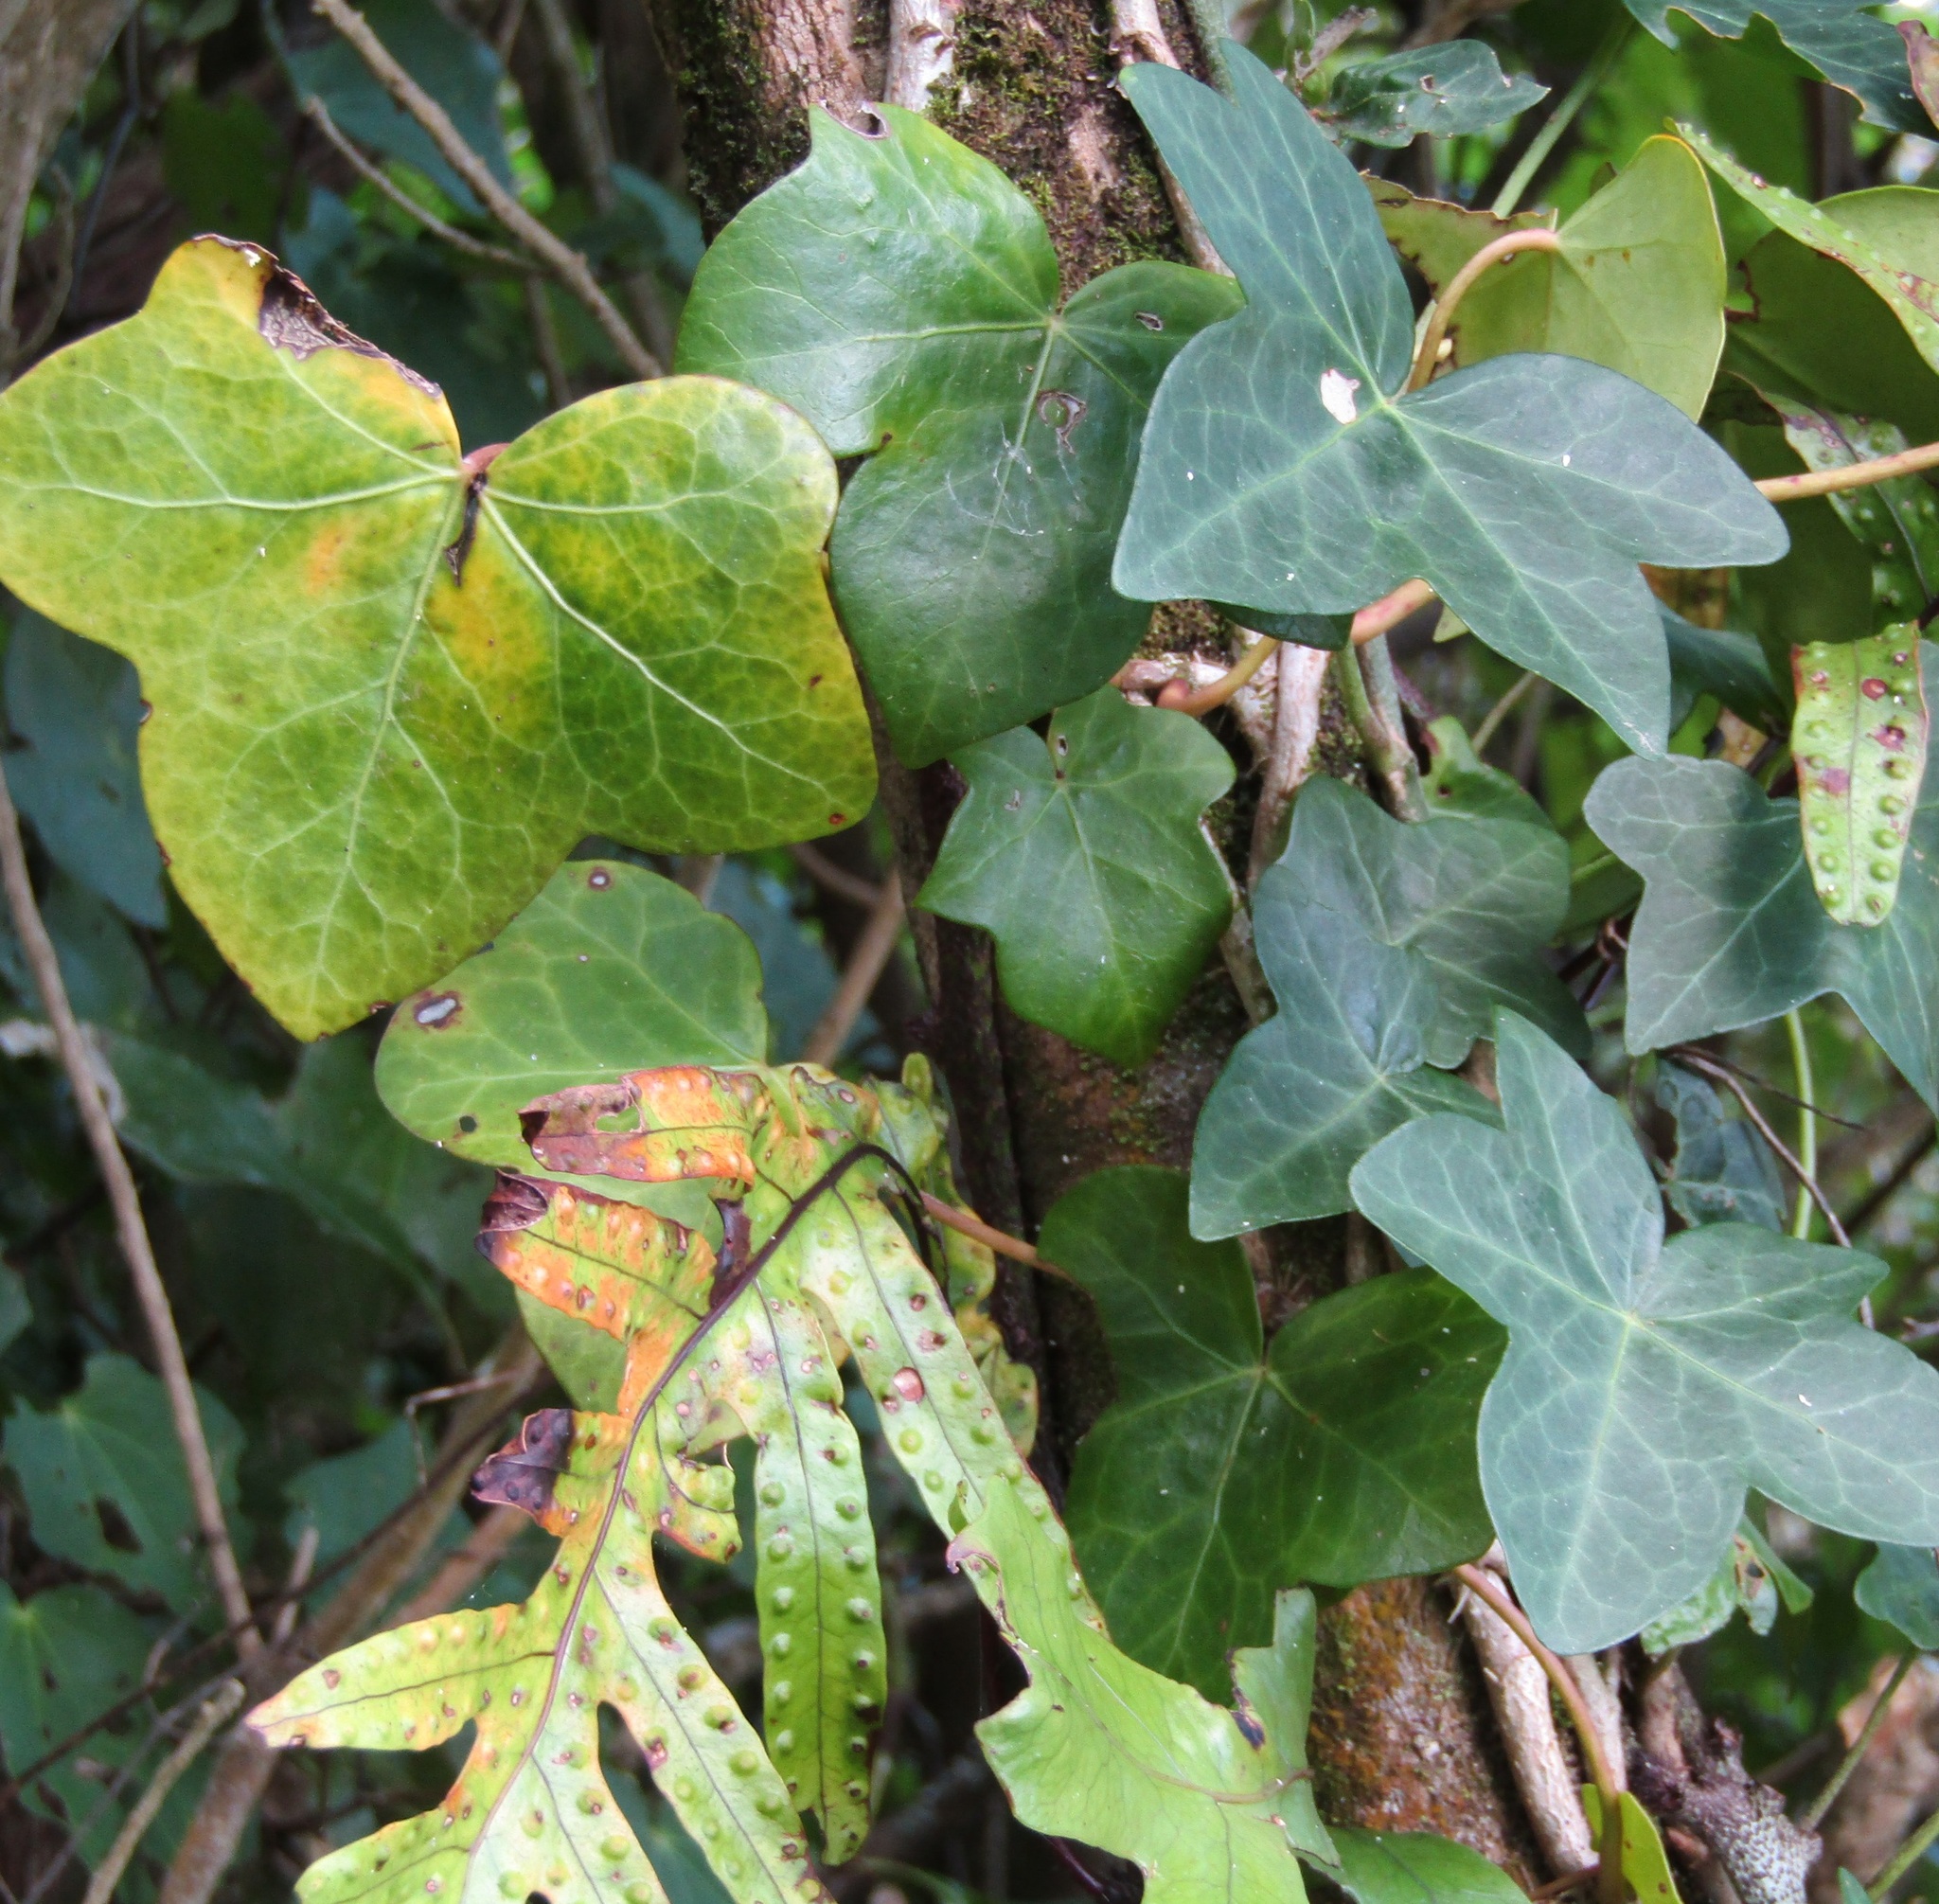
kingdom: Plantae
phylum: Tracheophyta
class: Magnoliopsida
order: Apiales
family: Araliaceae
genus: Hedera
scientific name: Hedera helix
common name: Ivy
